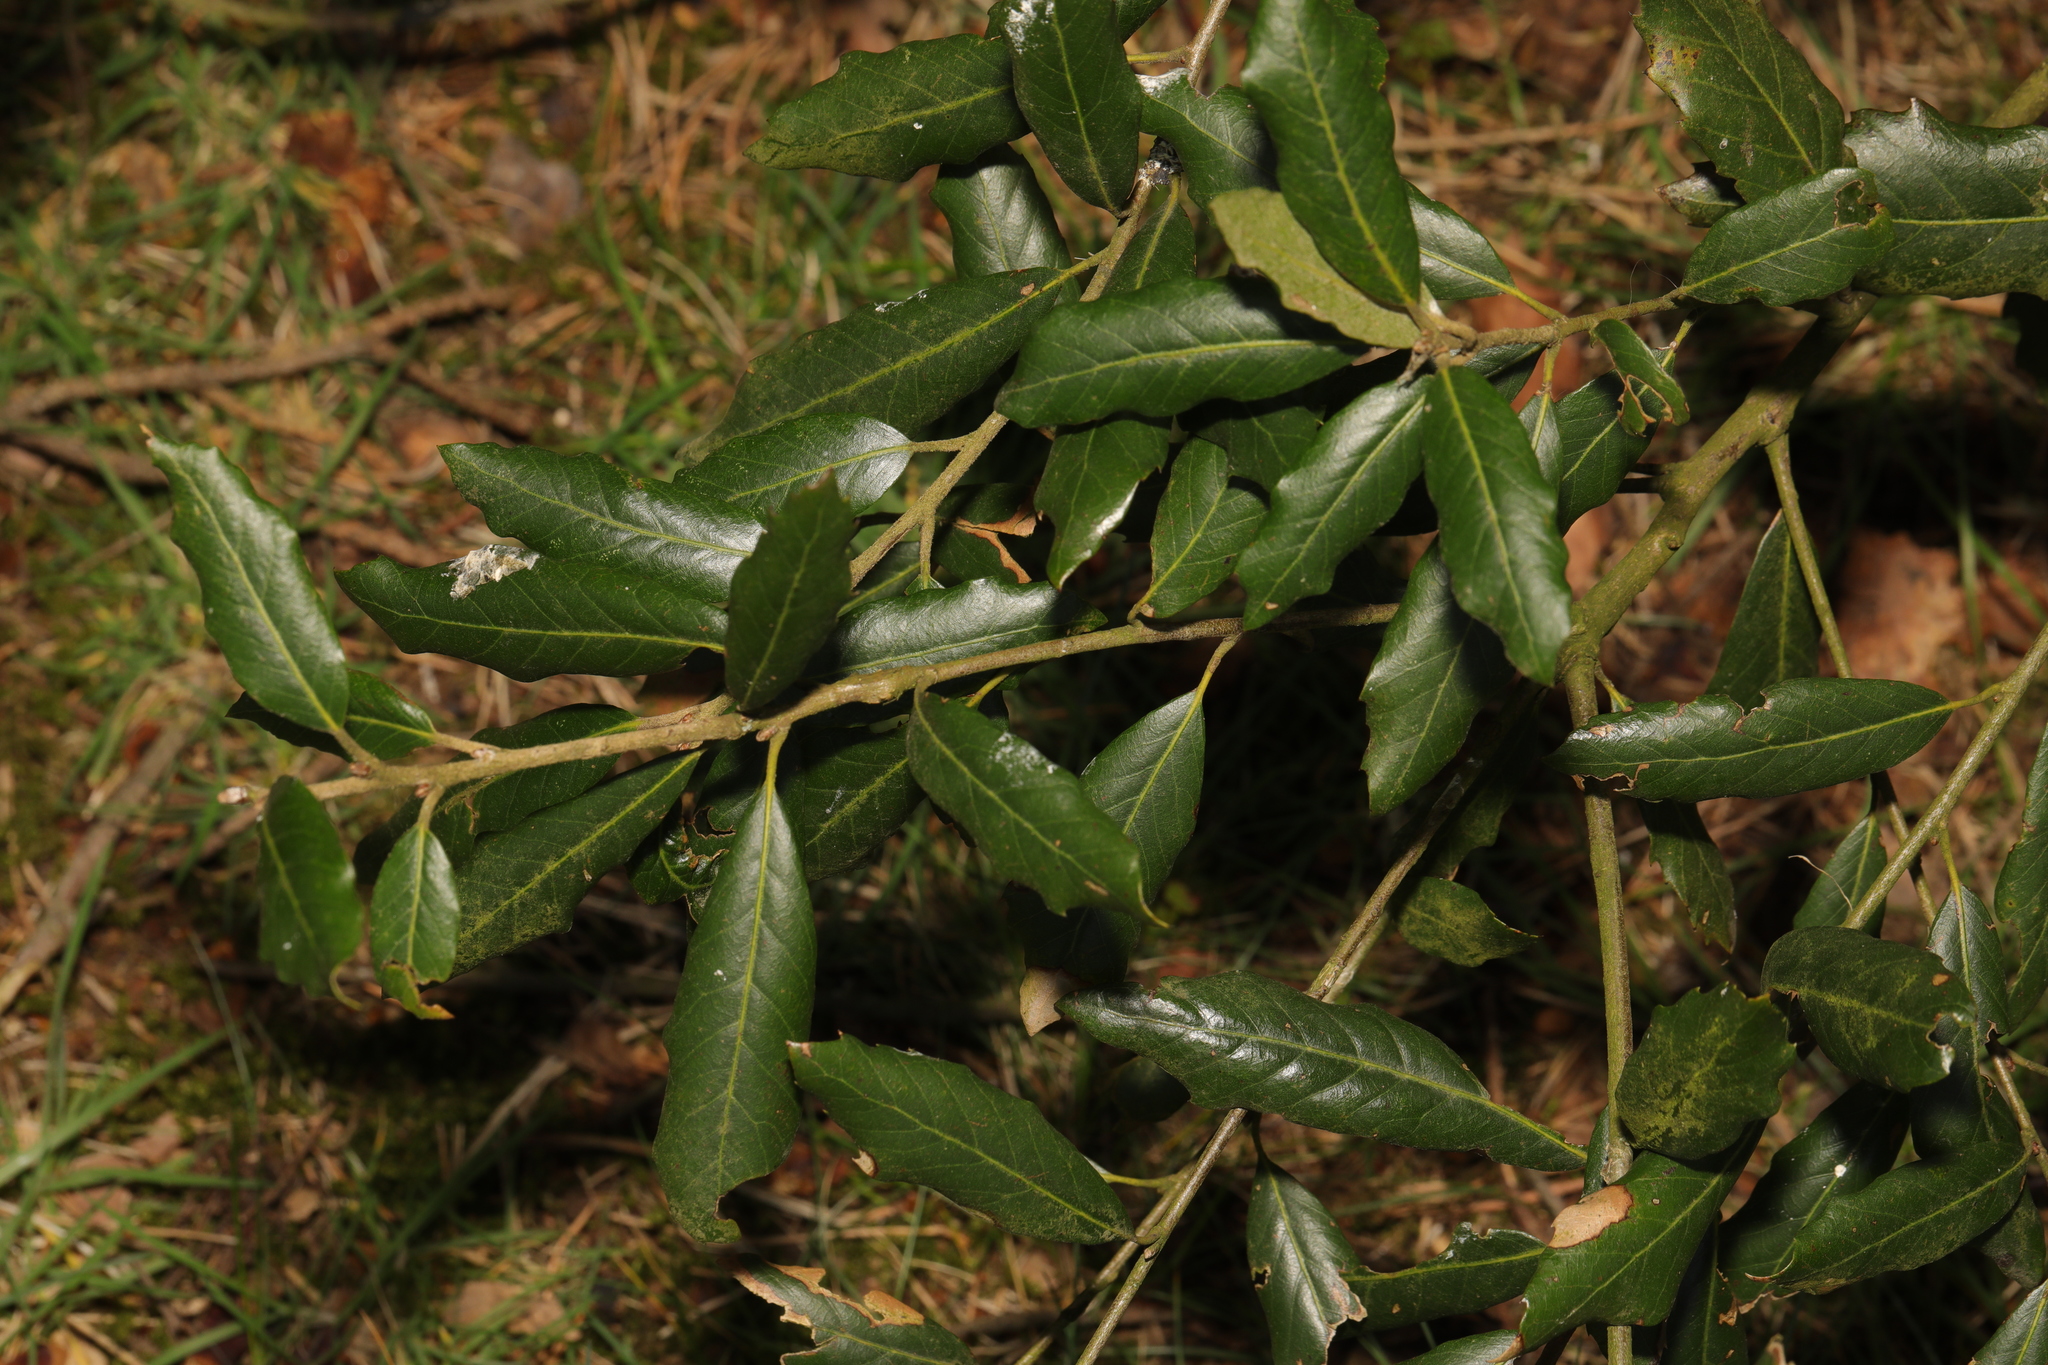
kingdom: Plantae
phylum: Tracheophyta
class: Magnoliopsida
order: Fagales
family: Fagaceae
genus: Quercus
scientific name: Quercus ilex
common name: Evergreen oak
